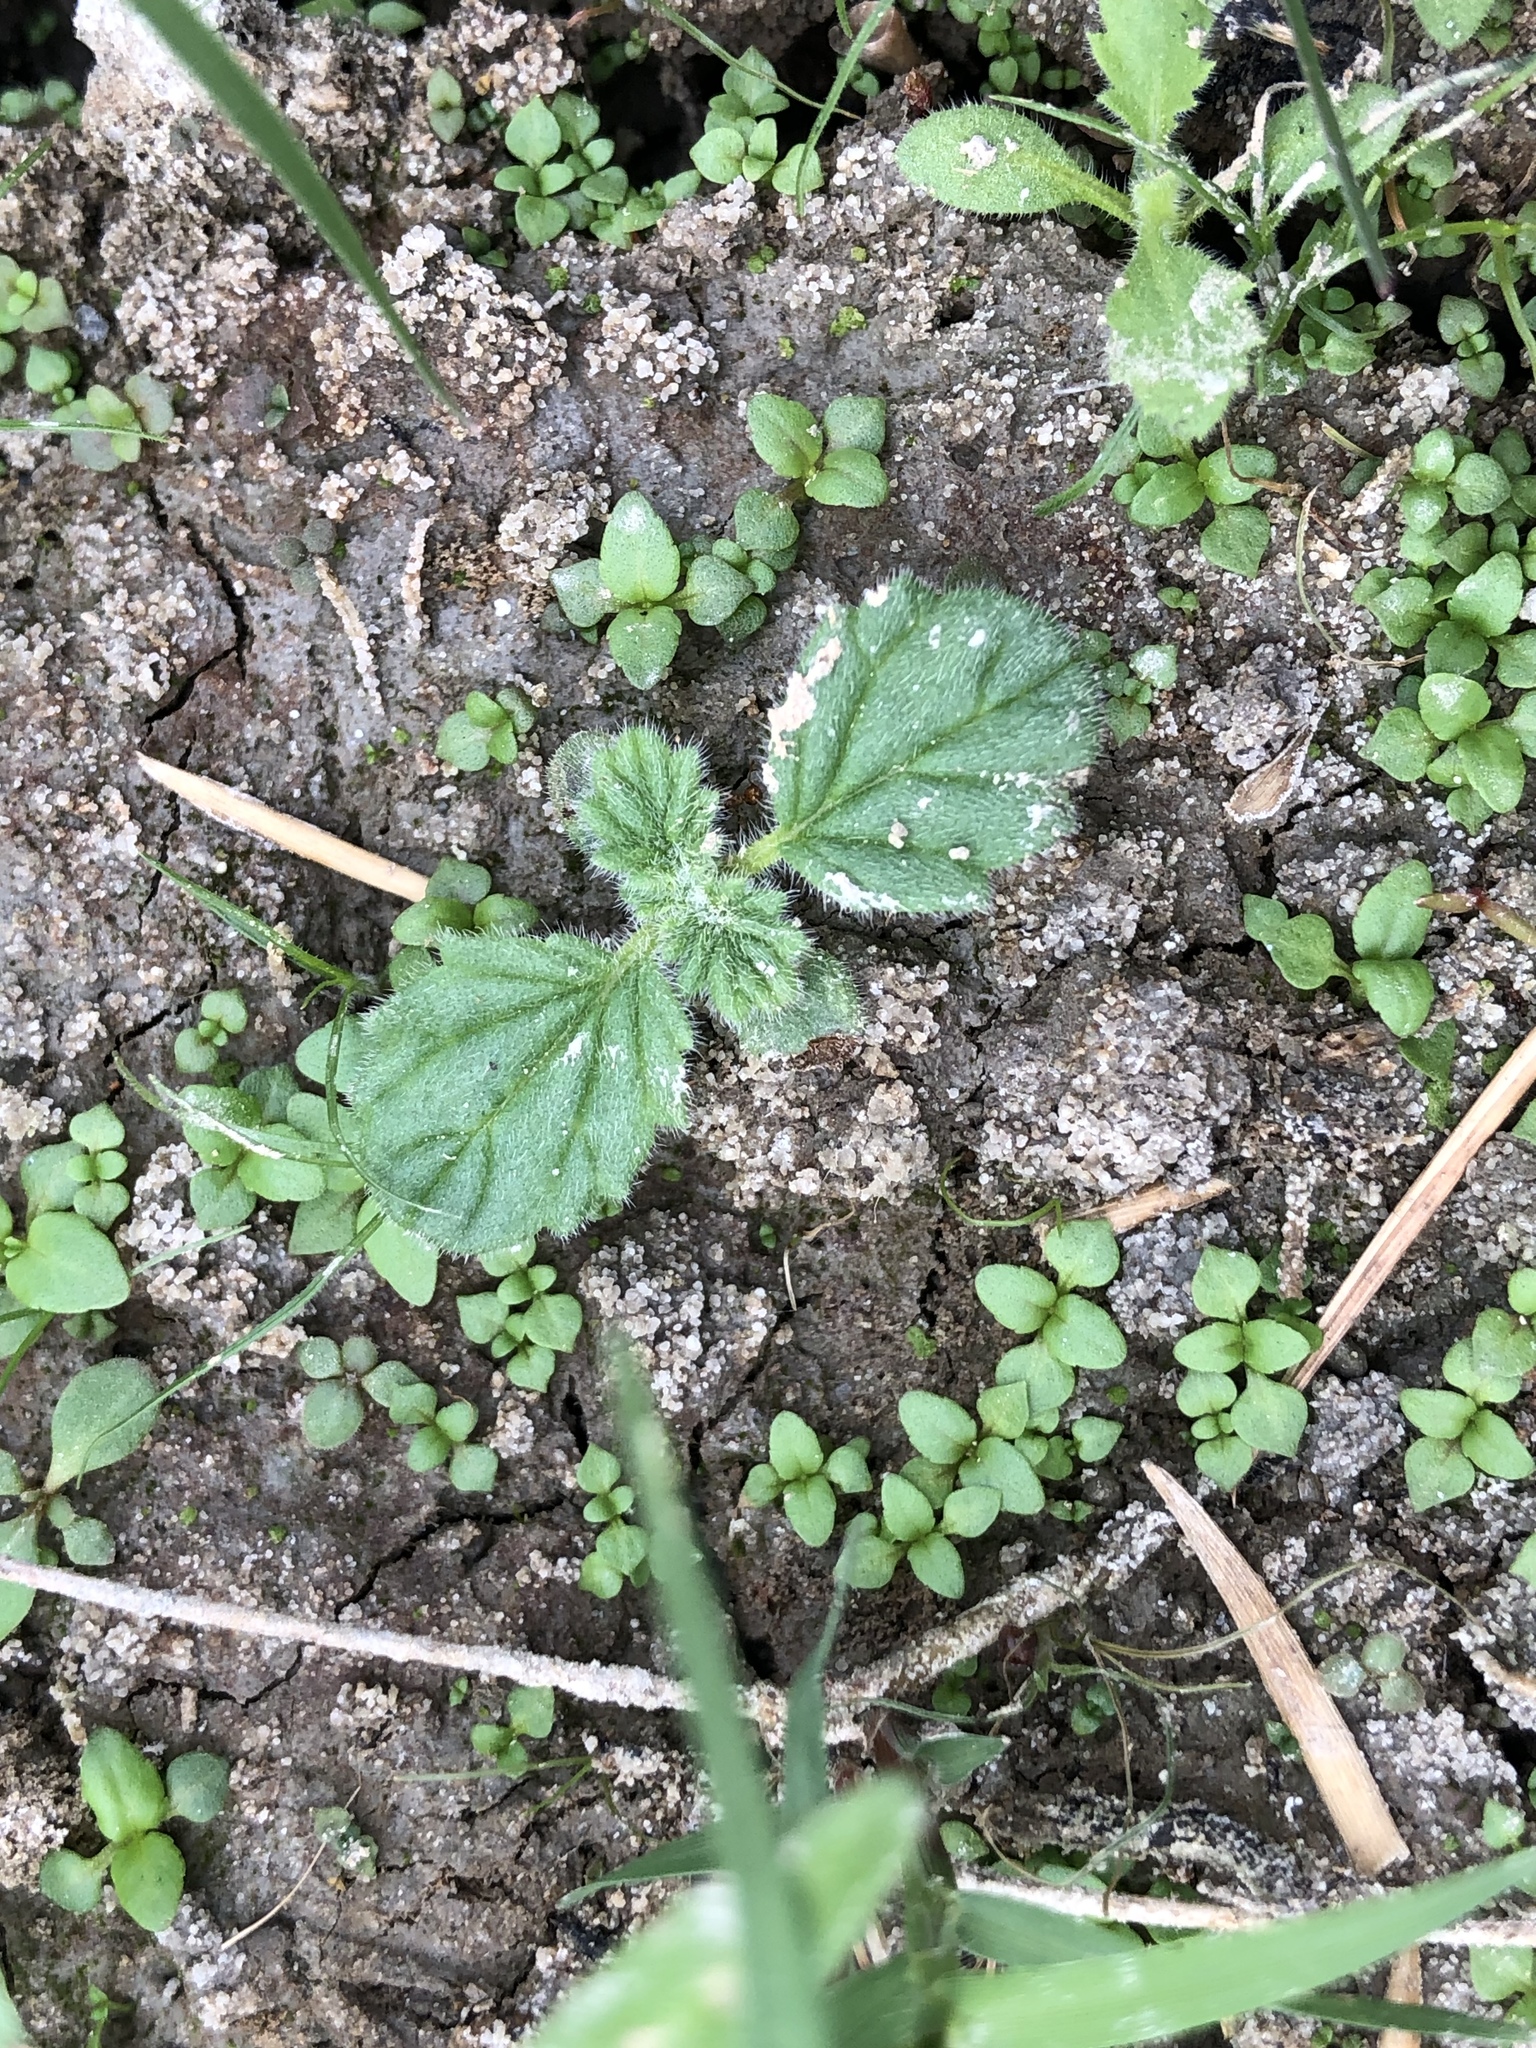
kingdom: Plantae
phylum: Tracheophyta
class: Magnoliopsida
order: Boraginales
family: Coldeniaceae
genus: Coldenia
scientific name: Coldenia procumbens
